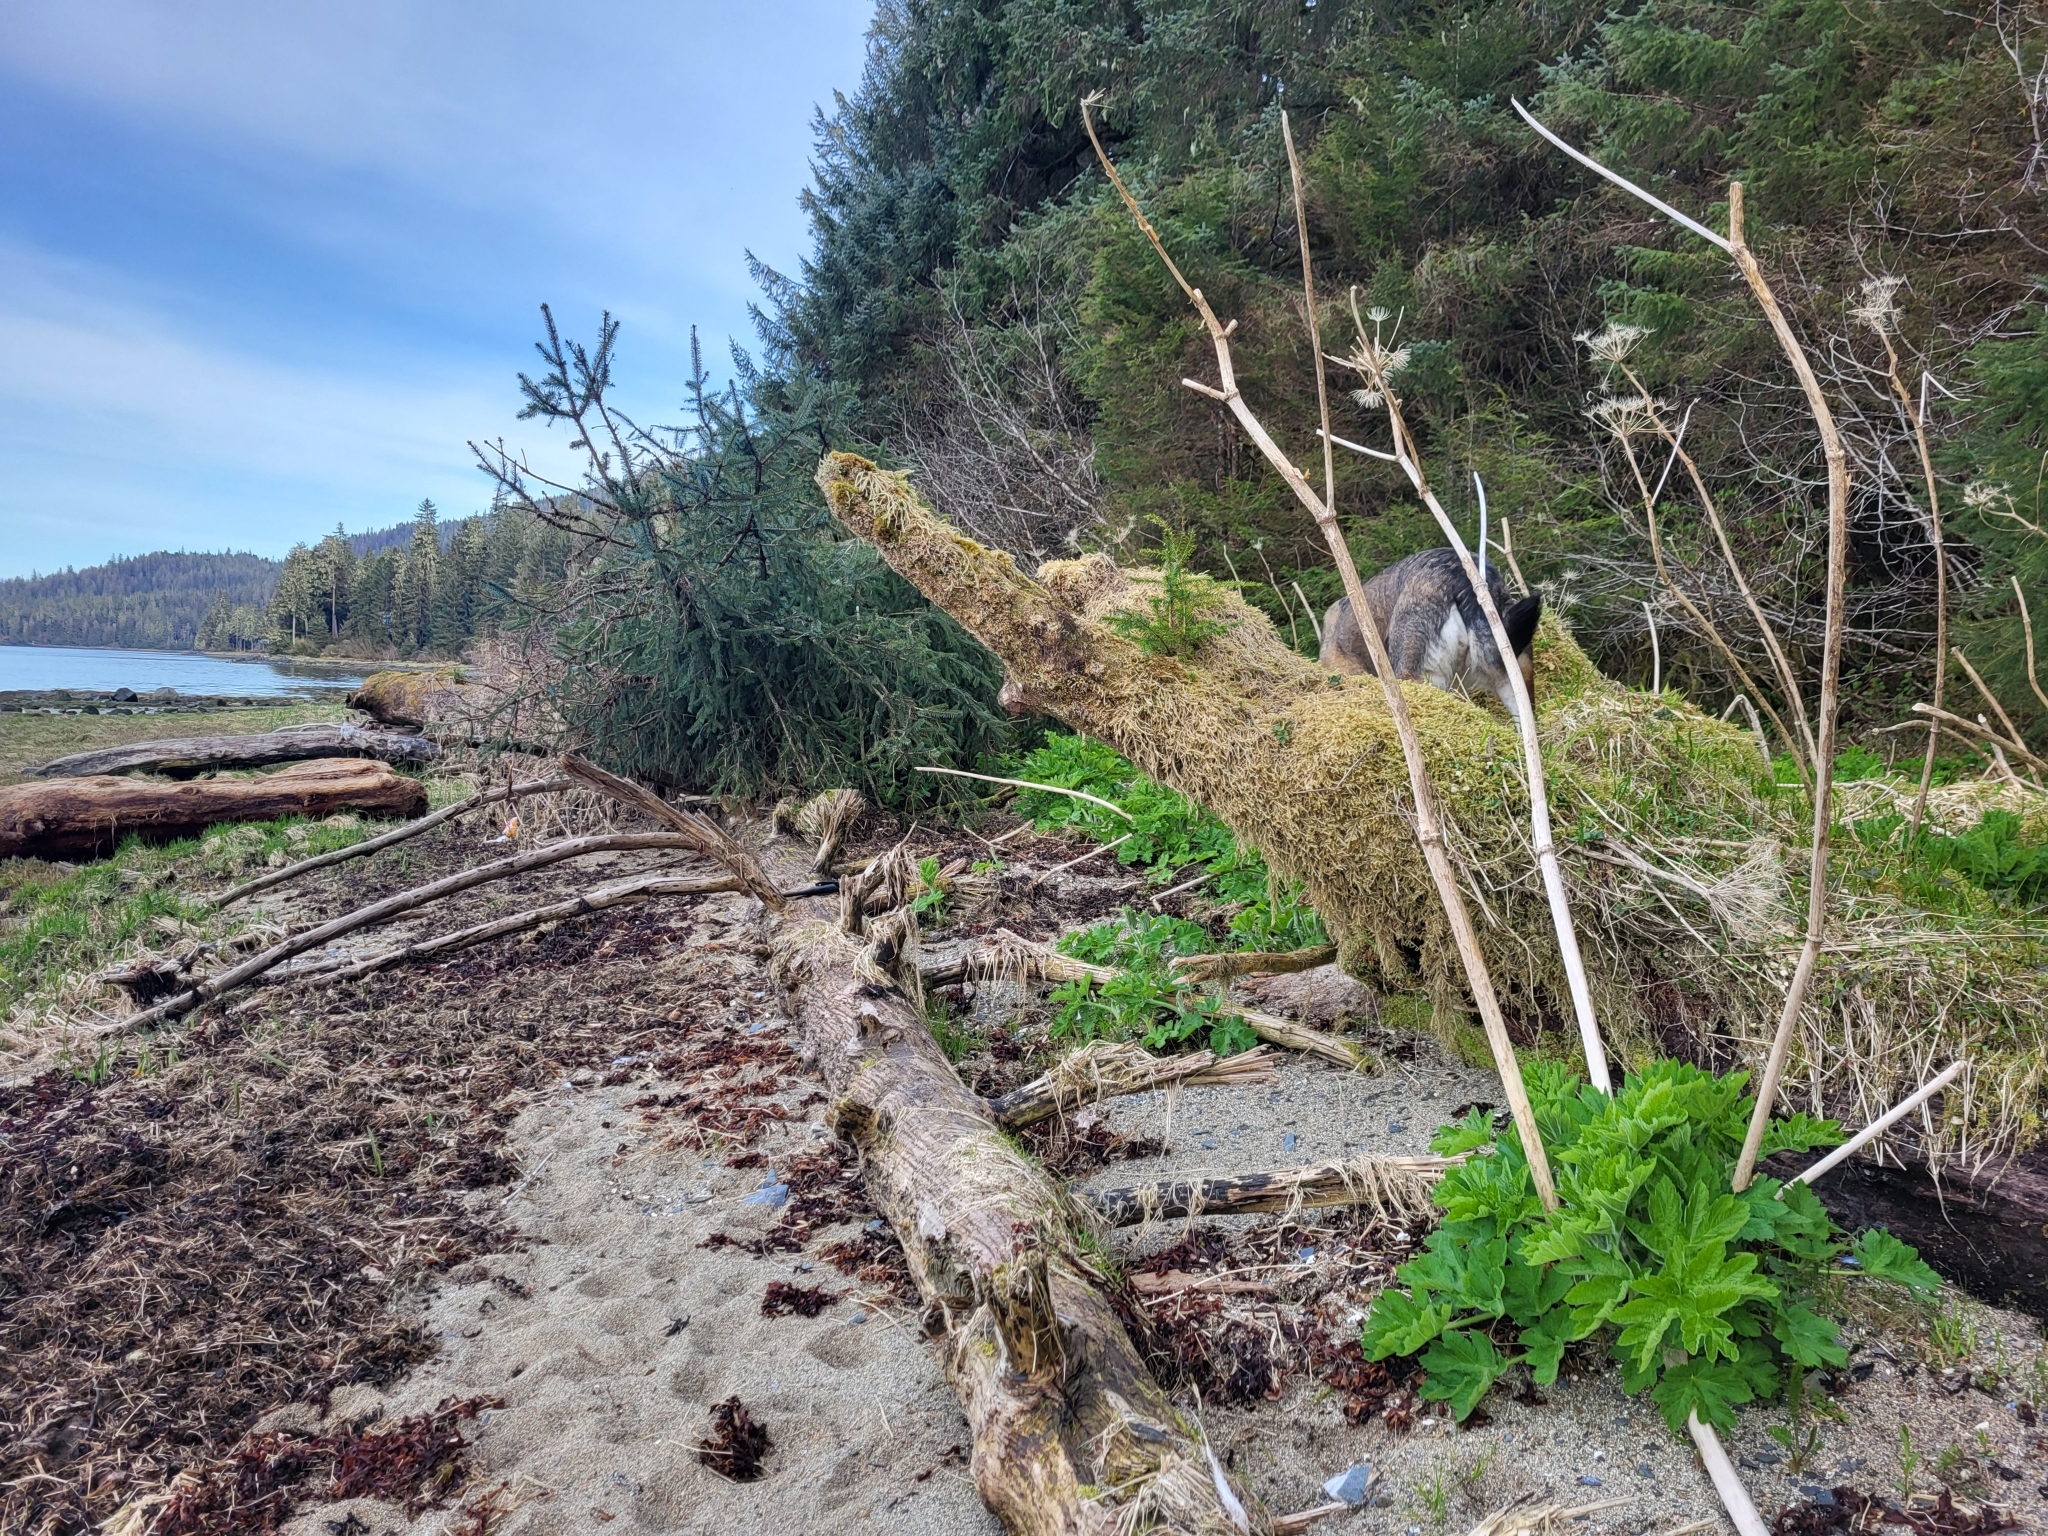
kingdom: Plantae
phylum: Tracheophyta
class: Magnoliopsida
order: Apiales
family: Apiaceae
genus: Heracleum
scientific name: Heracleum maximum
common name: American cow parsnip
